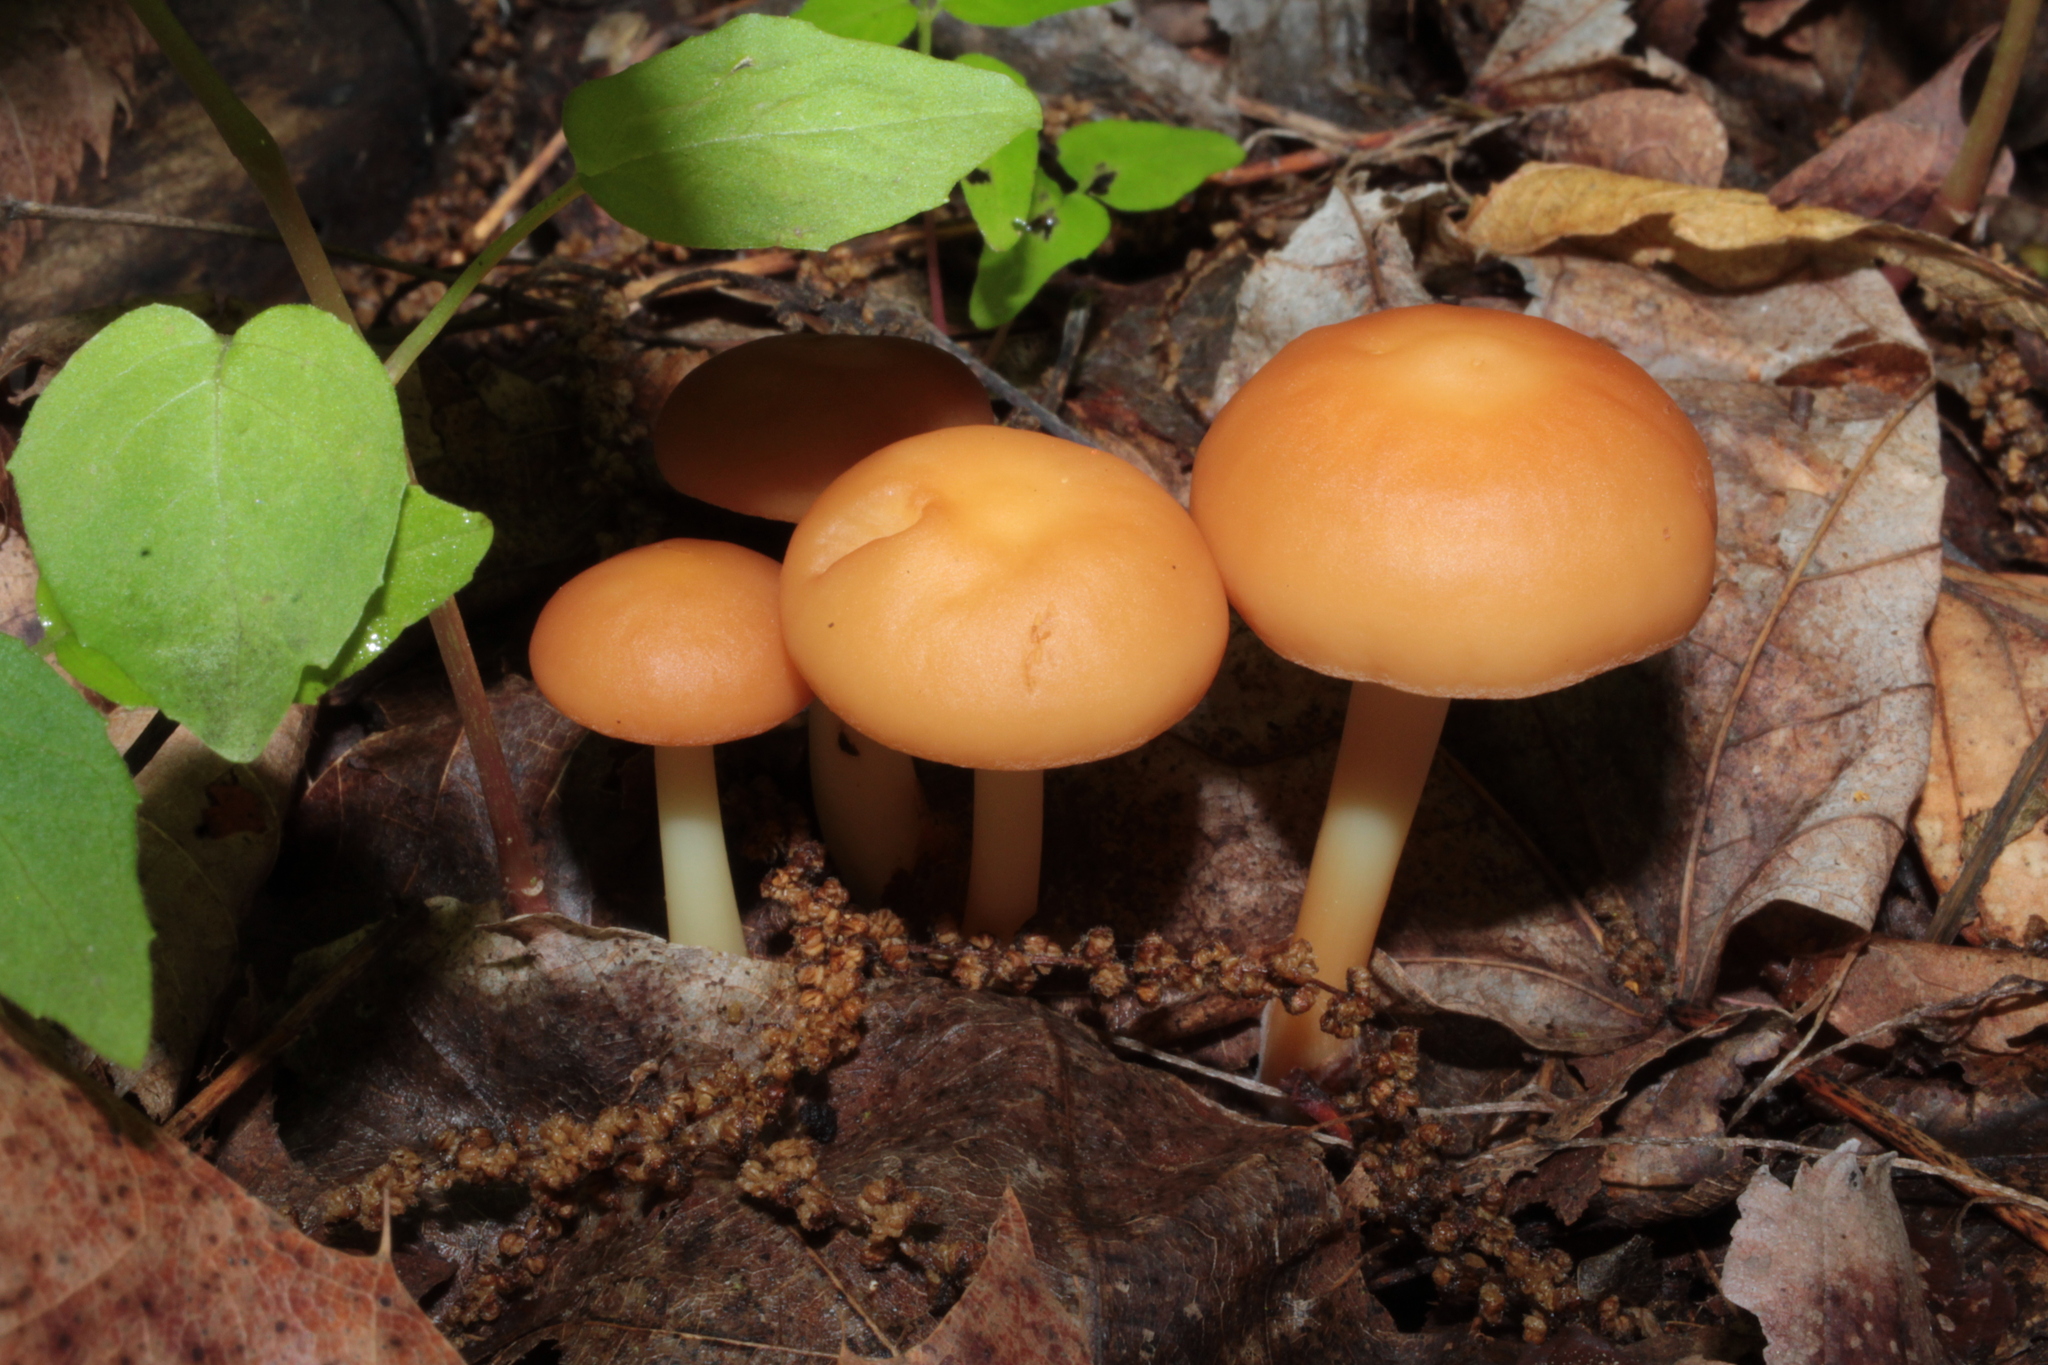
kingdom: Fungi
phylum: Basidiomycota
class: Agaricomycetes
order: Agaricales
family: Omphalotaceae
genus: Gymnopus
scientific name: Gymnopus dryophilus
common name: Penny top
